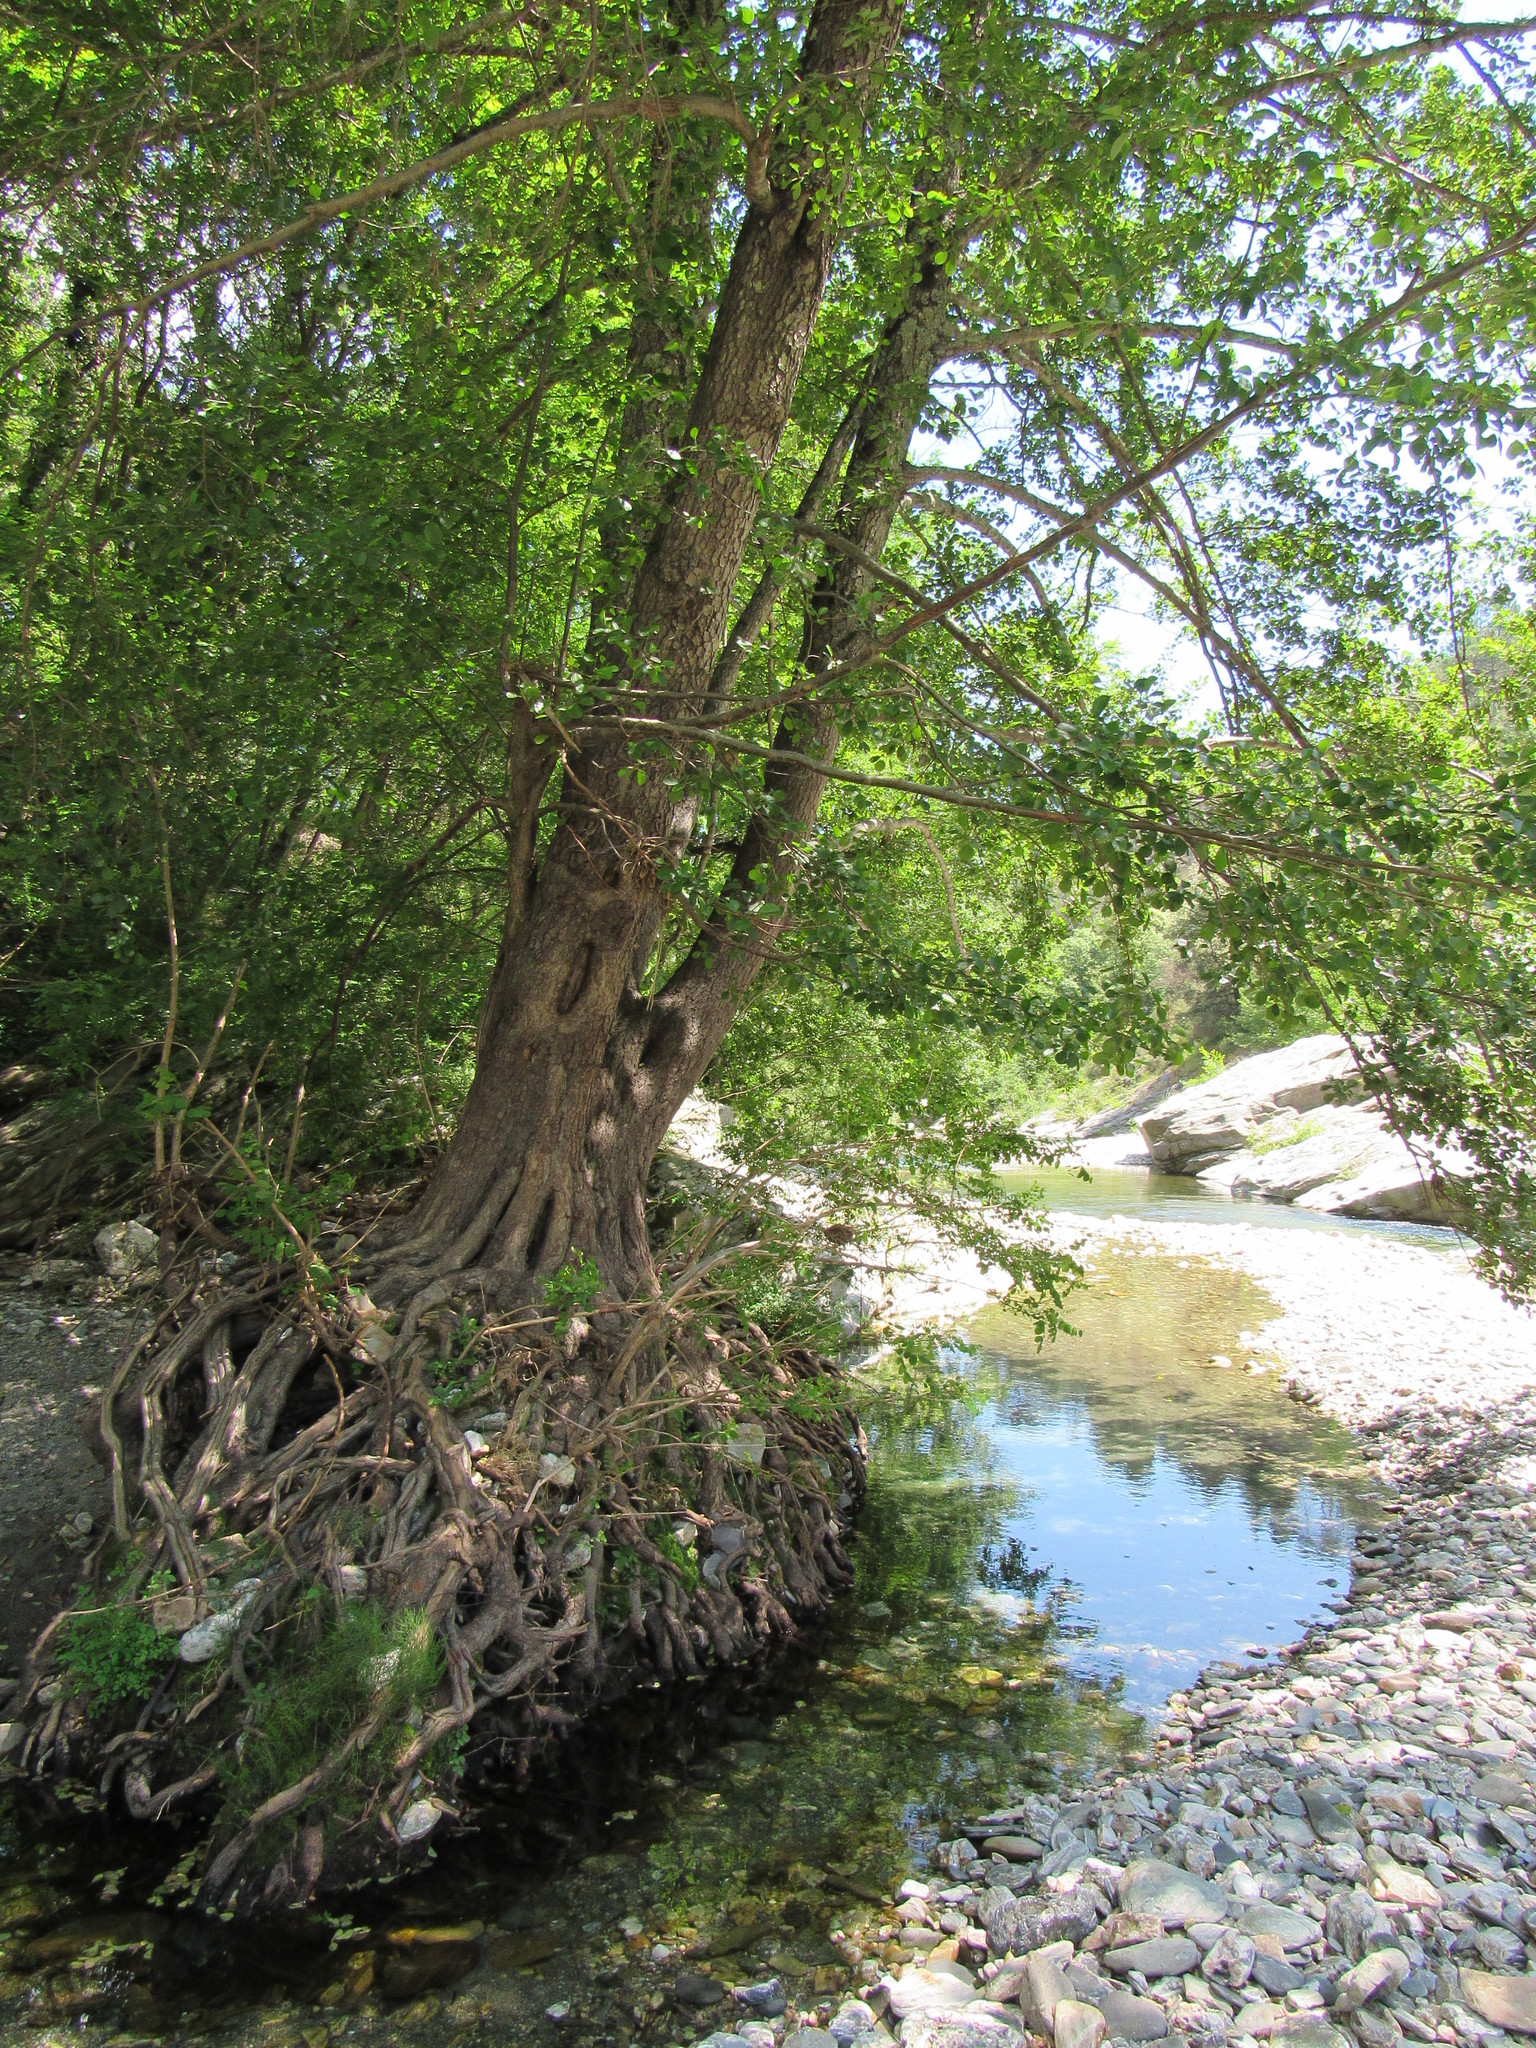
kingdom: Plantae
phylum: Tracheophyta
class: Magnoliopsida
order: Fagales
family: Betulaceae
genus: Alnus
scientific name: Alnus glutinosa
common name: Black alder
